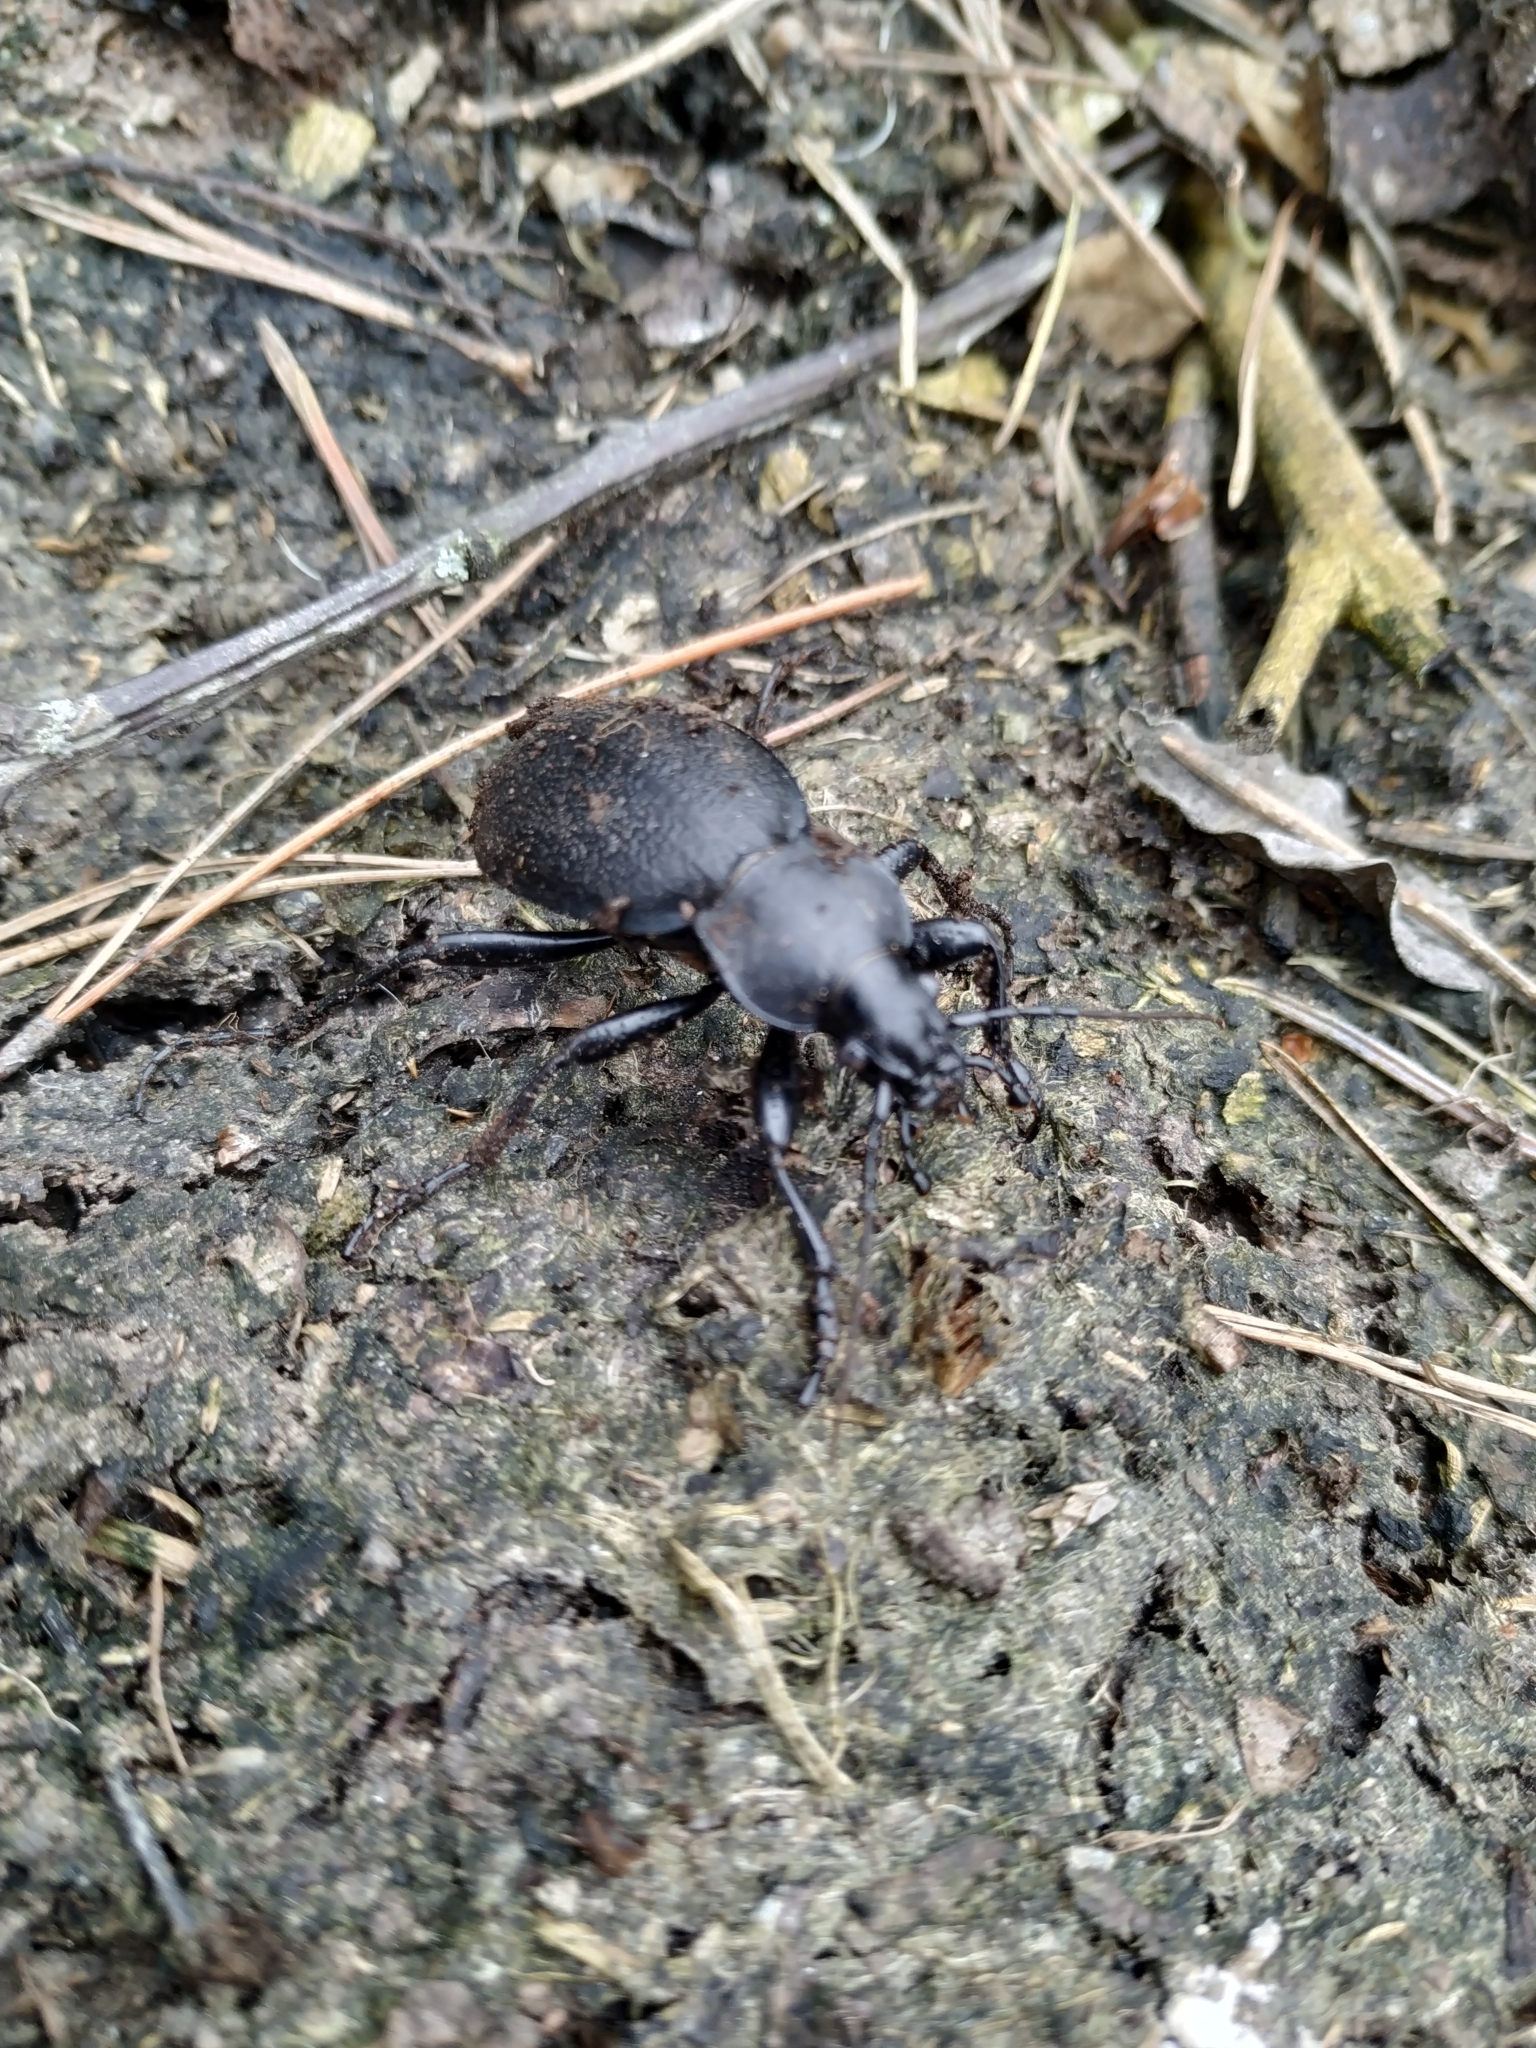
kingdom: Animalia
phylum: Arthropoda
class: Insecta
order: Coleoptera
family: Carabidae
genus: Carabus
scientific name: Carabus coriaceus
